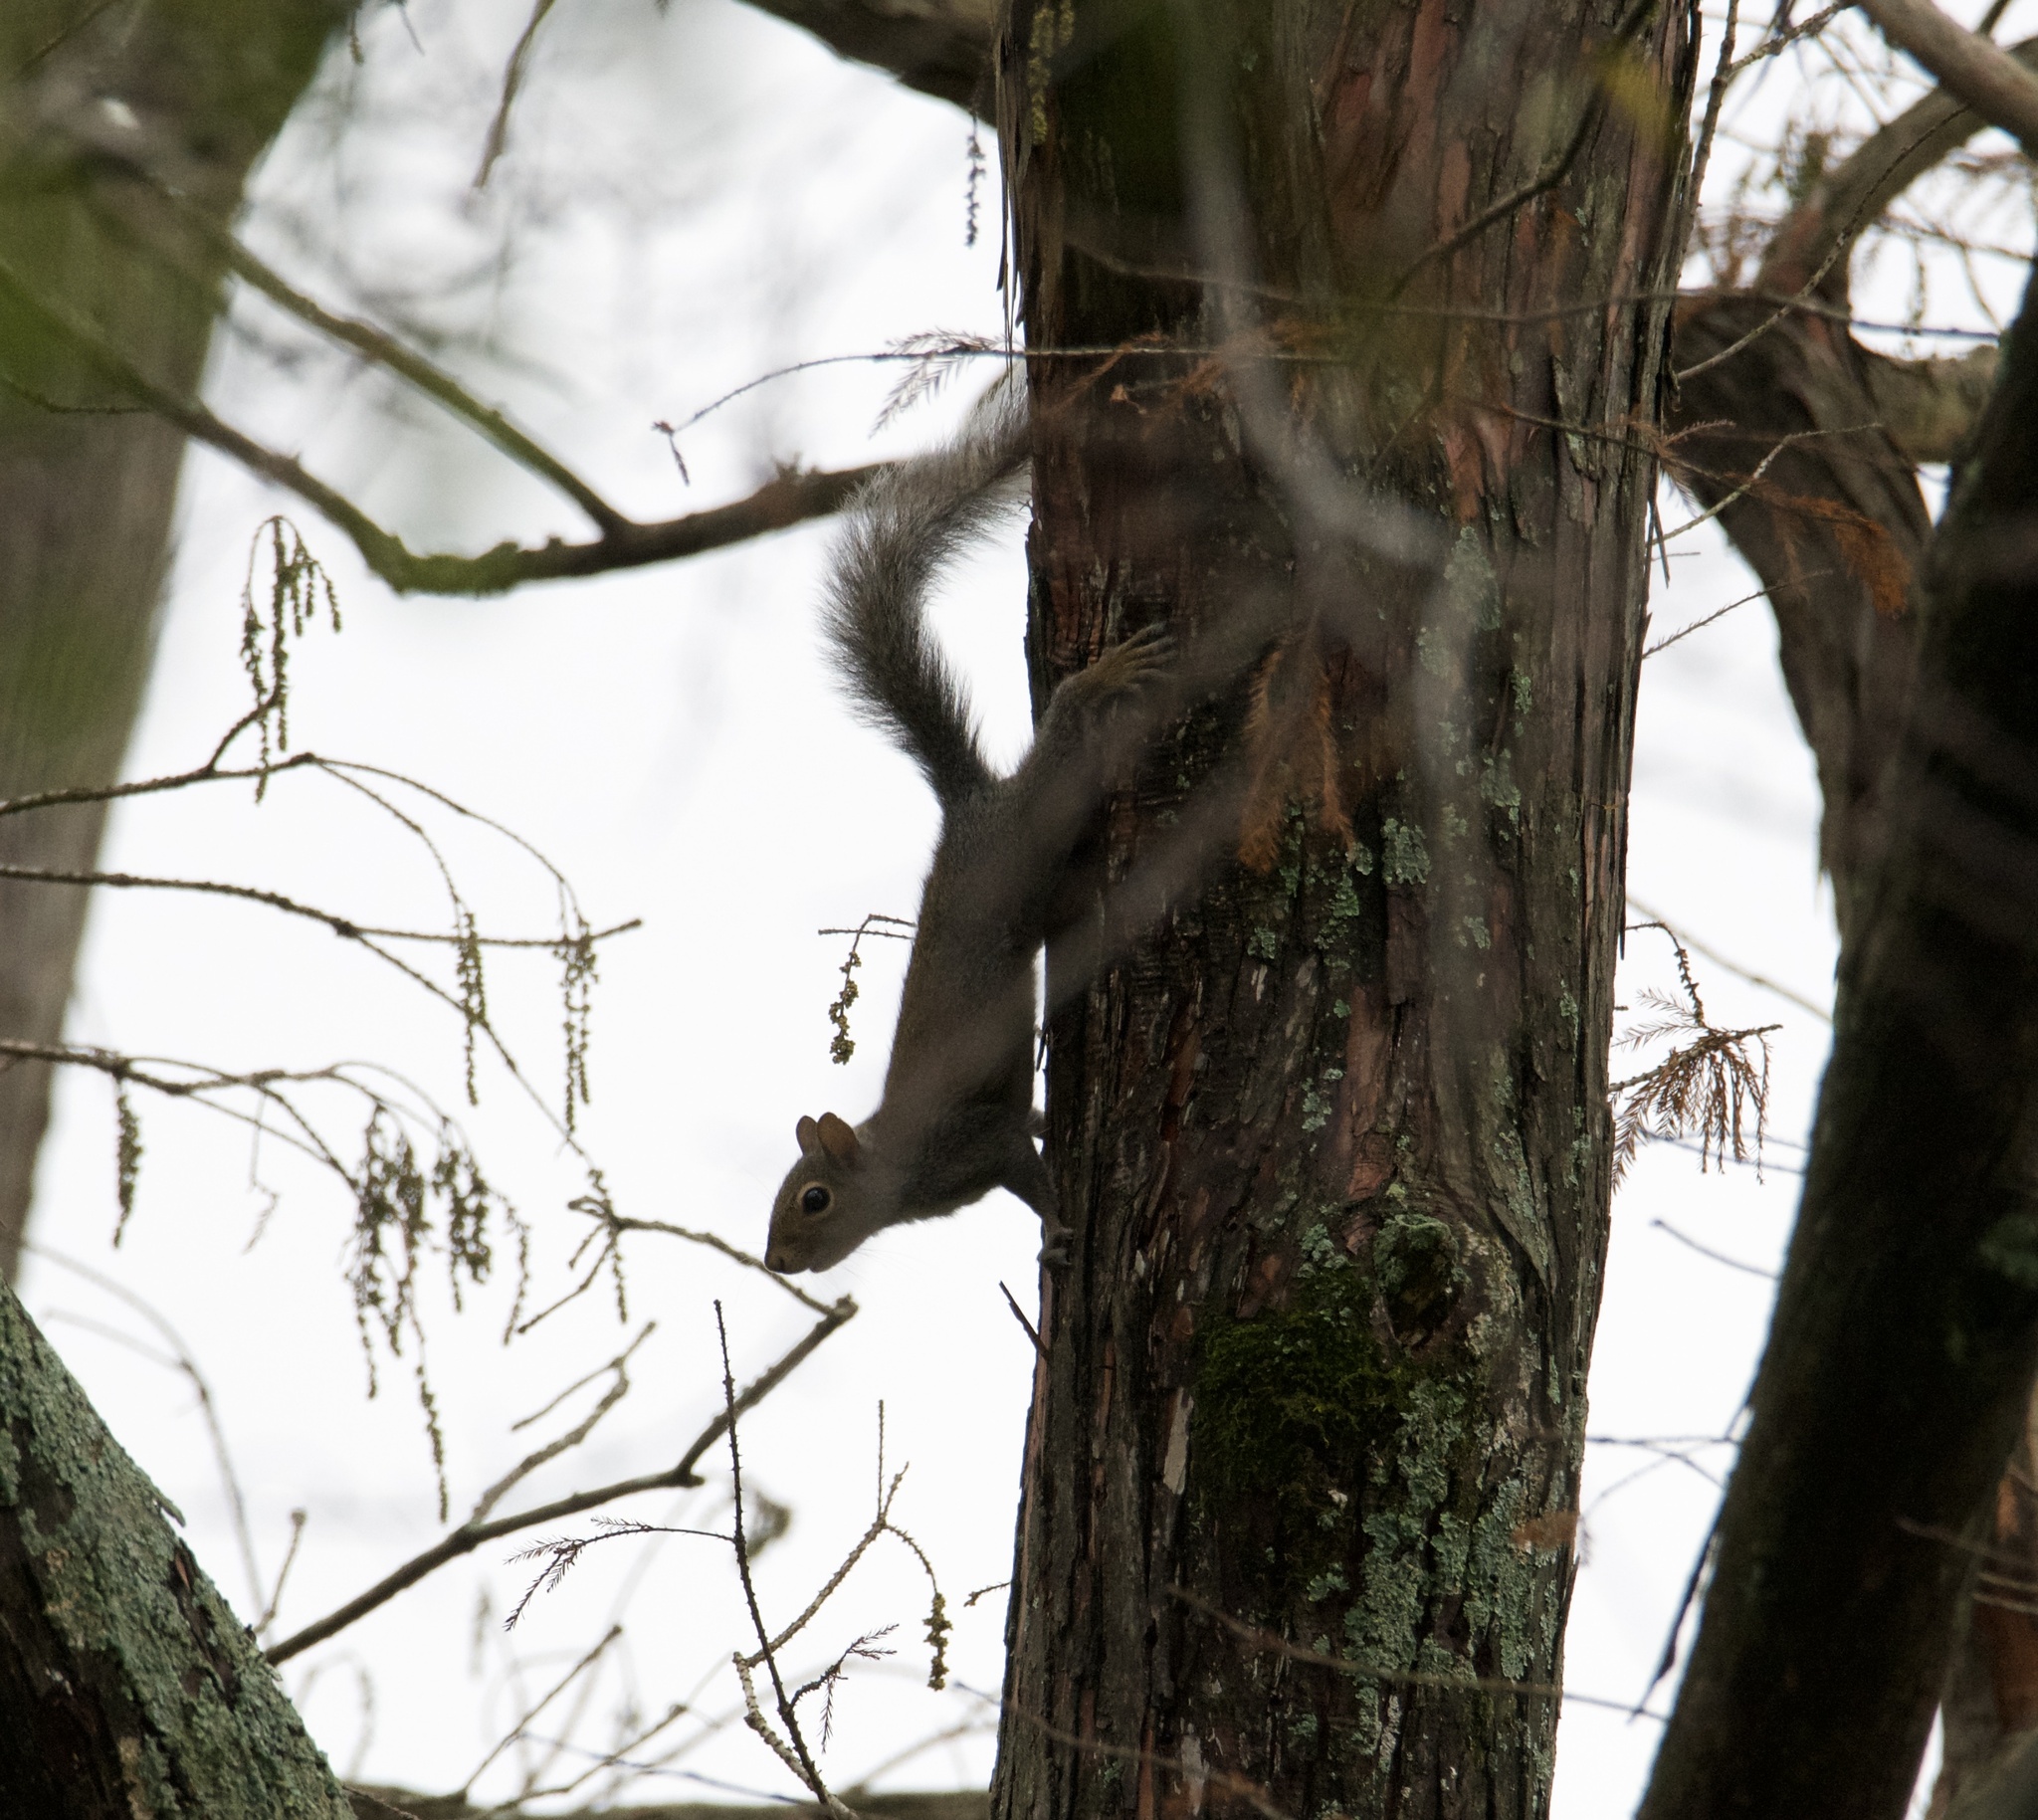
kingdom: Animalia
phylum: Chordata
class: Mammalia
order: Rodentia
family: Sciuridae
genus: Sciurus
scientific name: Sciurus carolinensis
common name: Eastern gray squirrel
